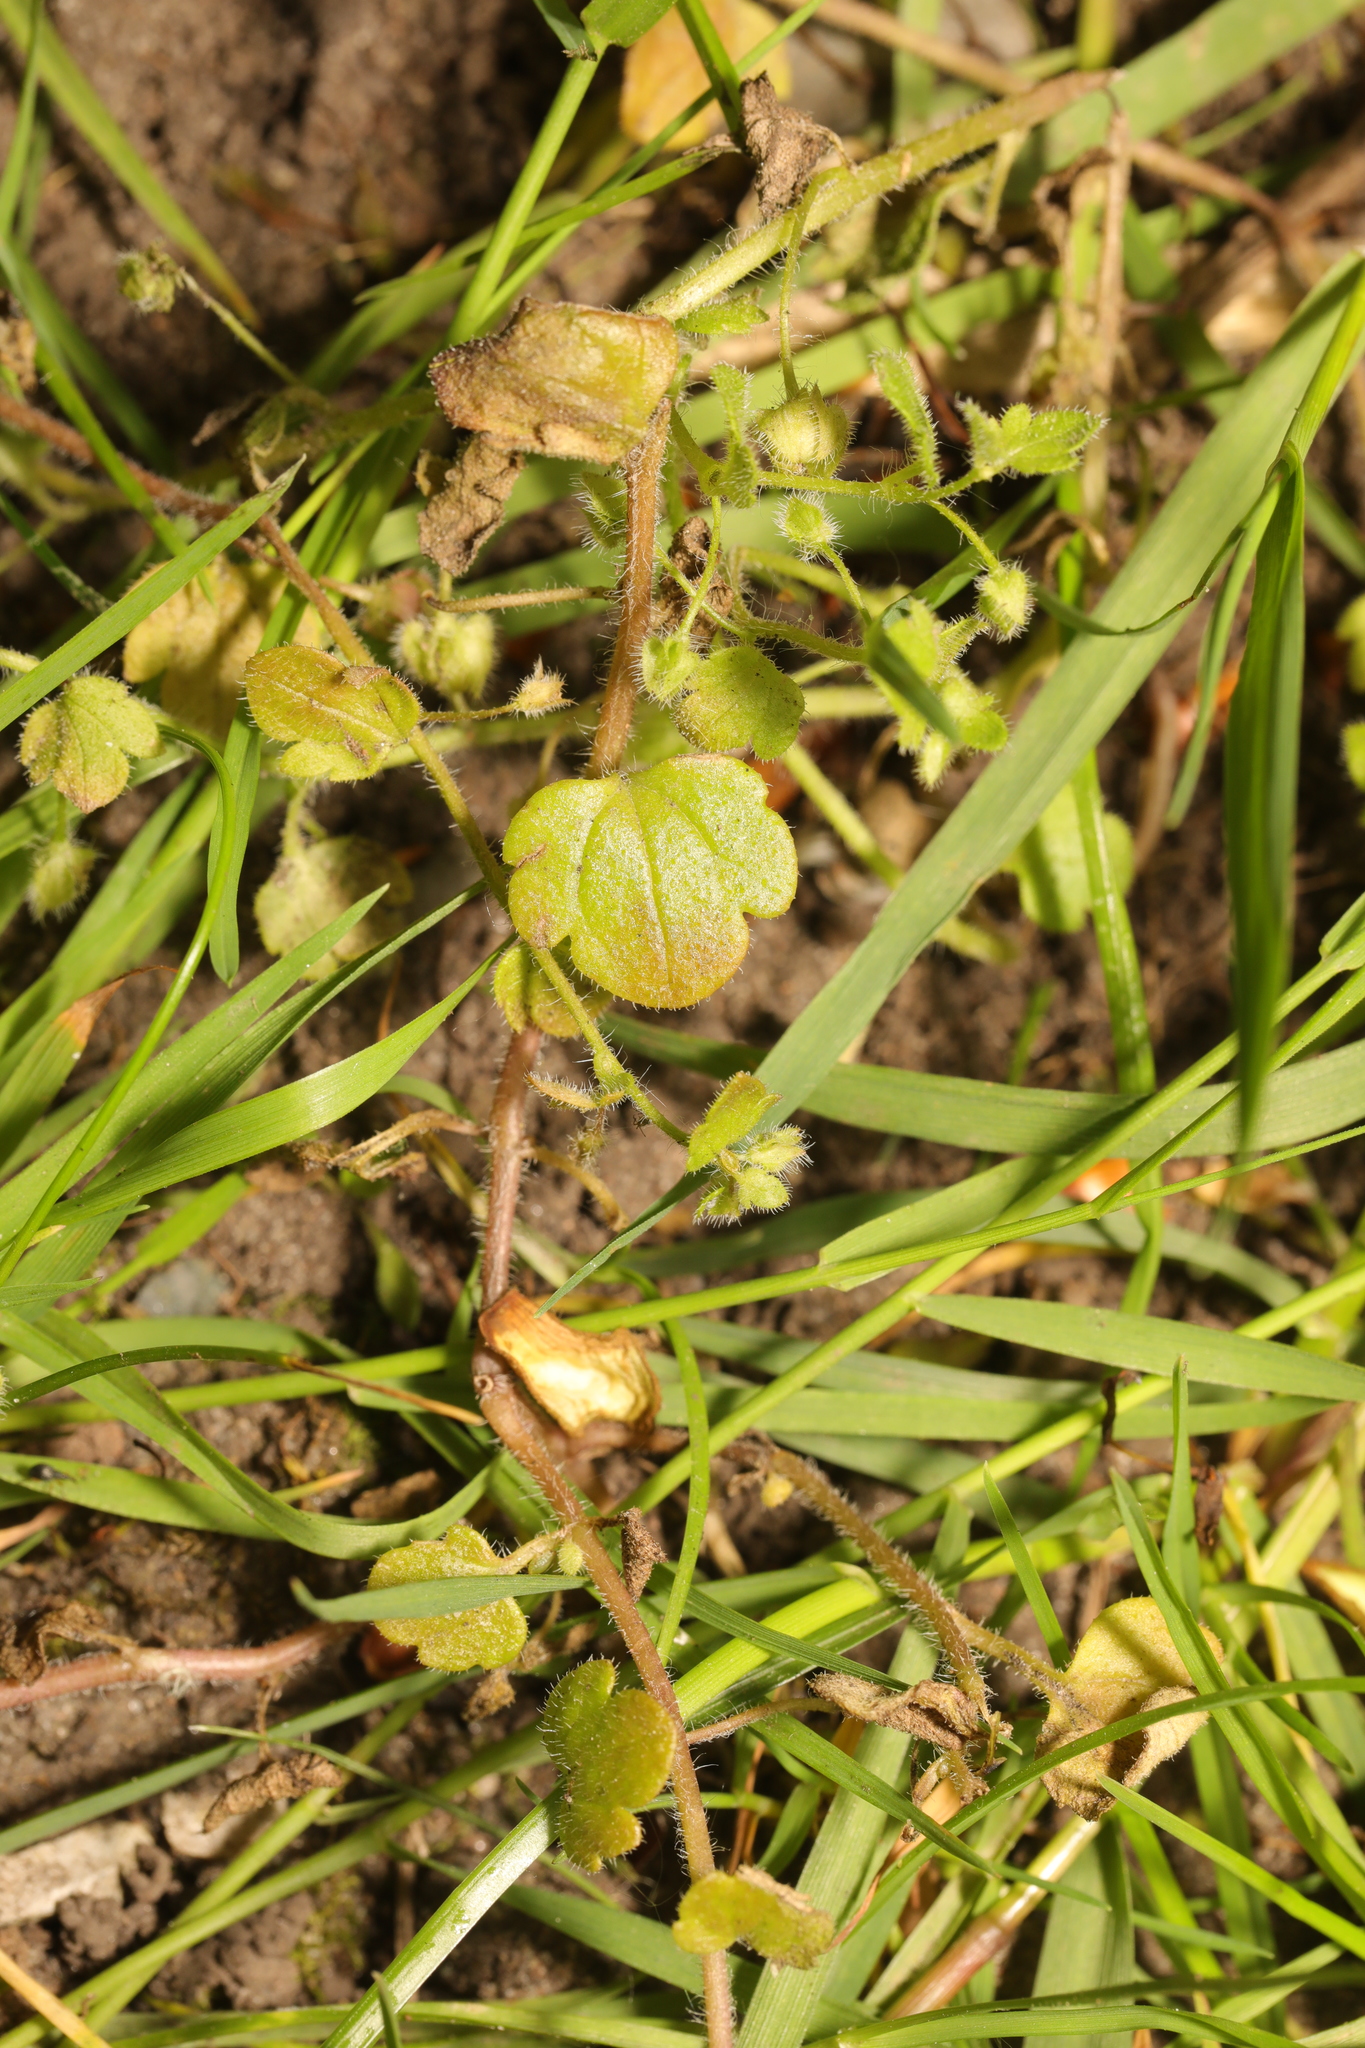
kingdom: Plantae
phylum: Tracheophyta
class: Magnoliopsida
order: Lamiales
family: Plantaginaceae
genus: Veronica
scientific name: Veronica sublobata
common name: False ivy-leaved speedwell
